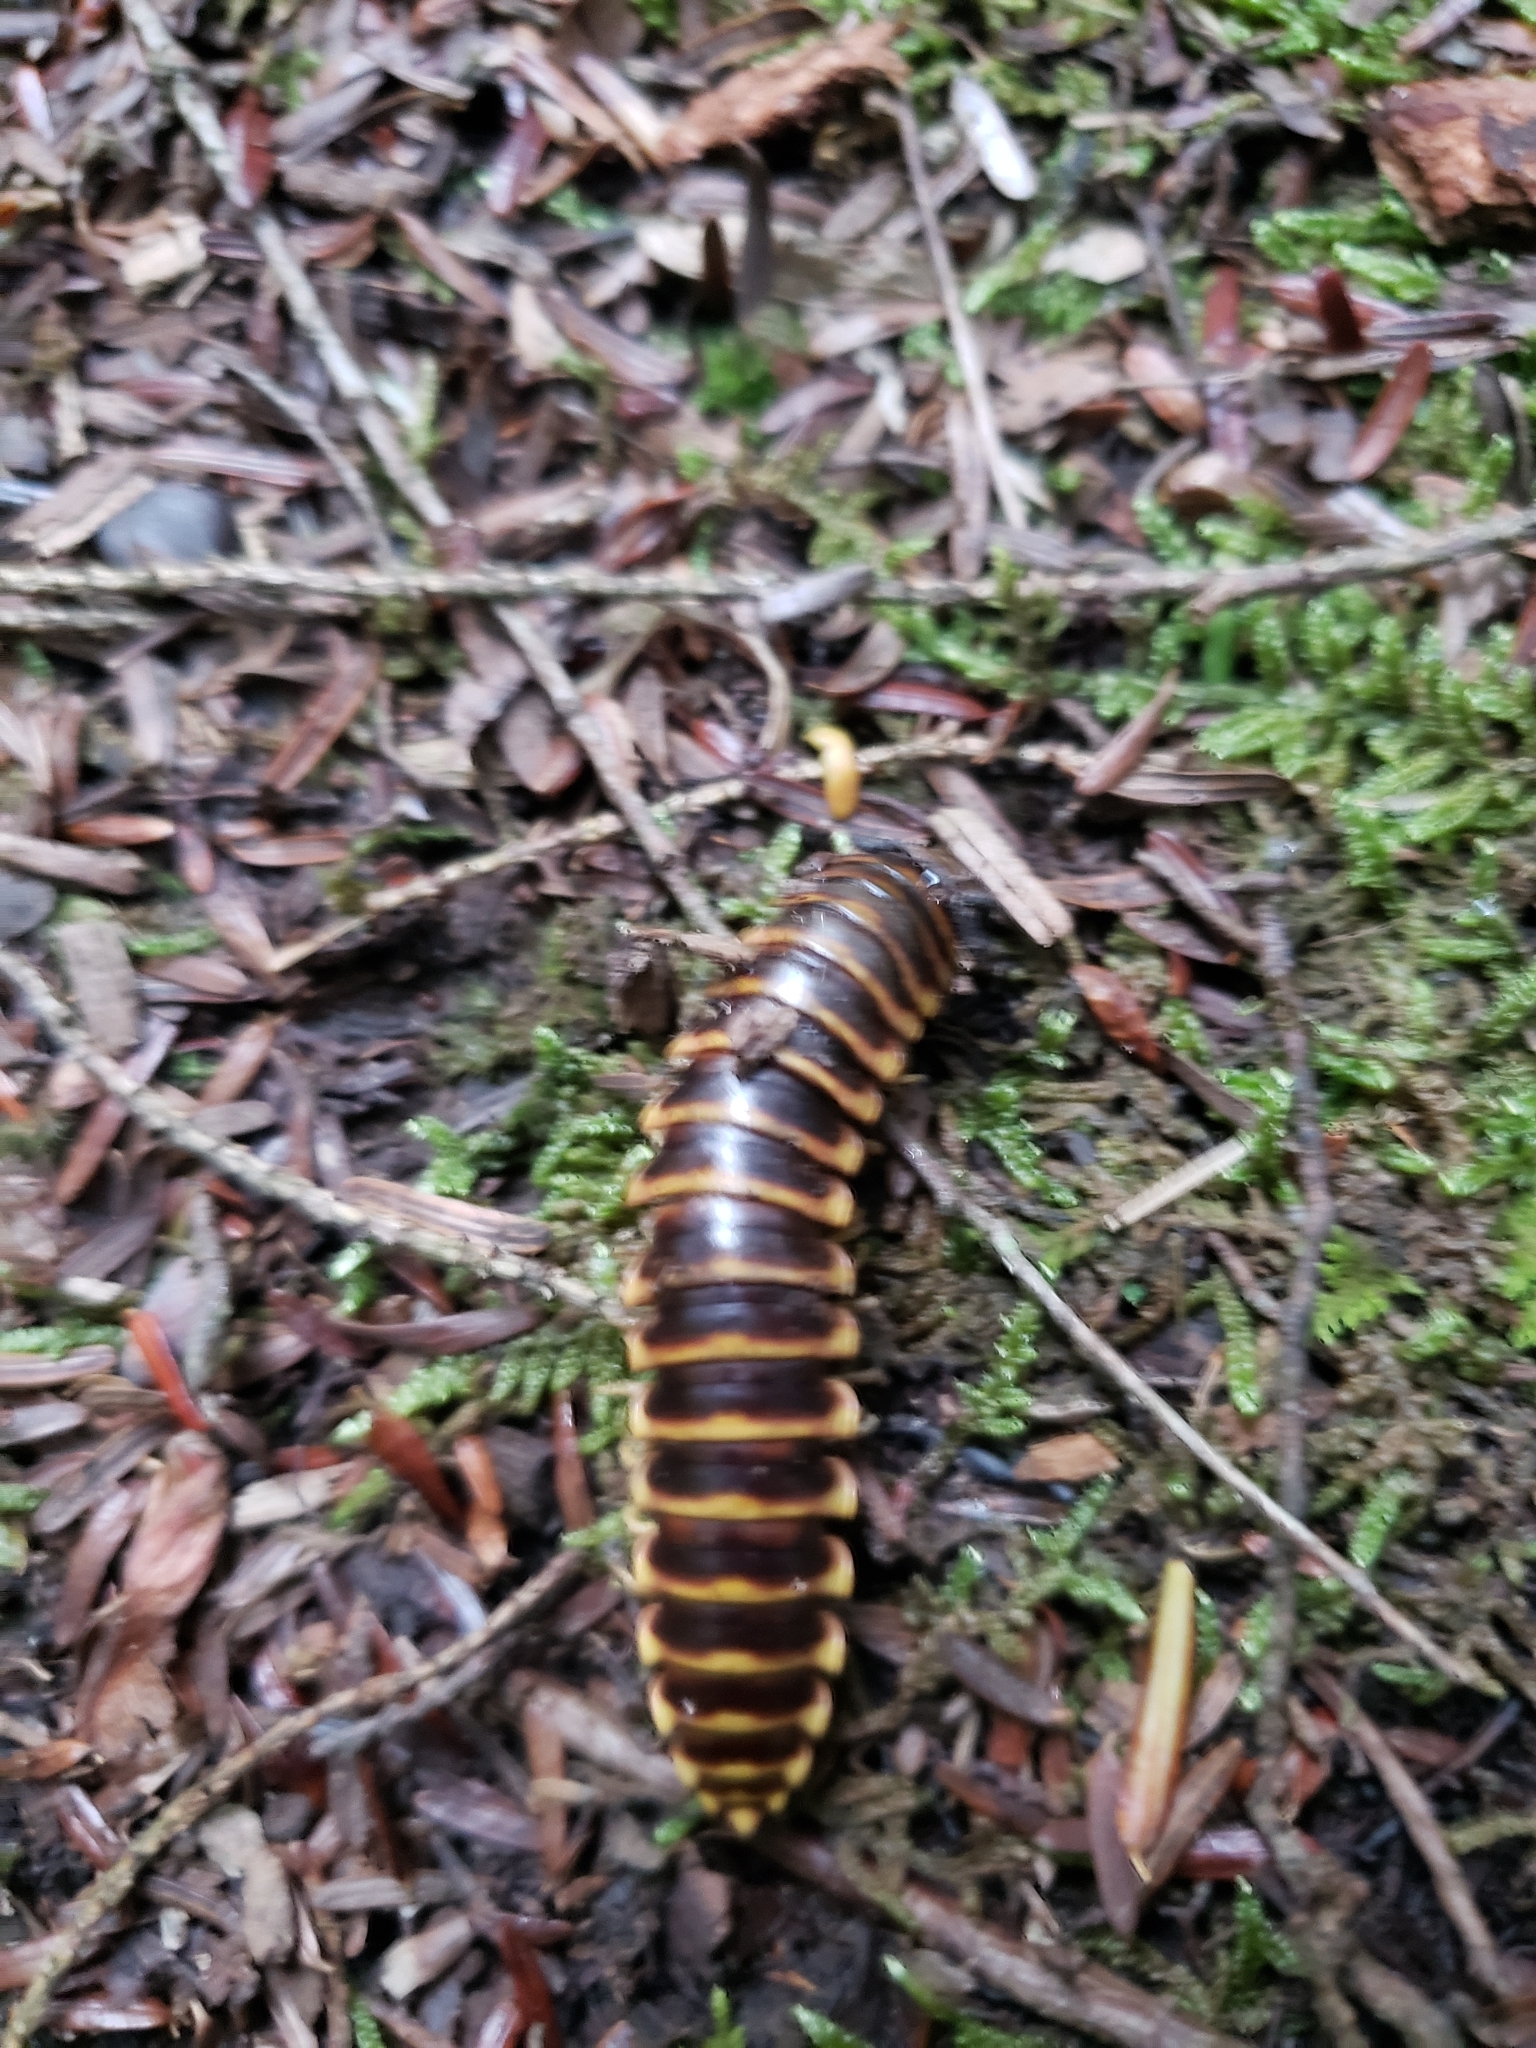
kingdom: Animalia
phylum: Arthropoda
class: Diplopoda
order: Polydesmida
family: Xystodesmidae
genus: Apheloria
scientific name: Apheloria virginiensis
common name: Black-and-gold flat millipede
